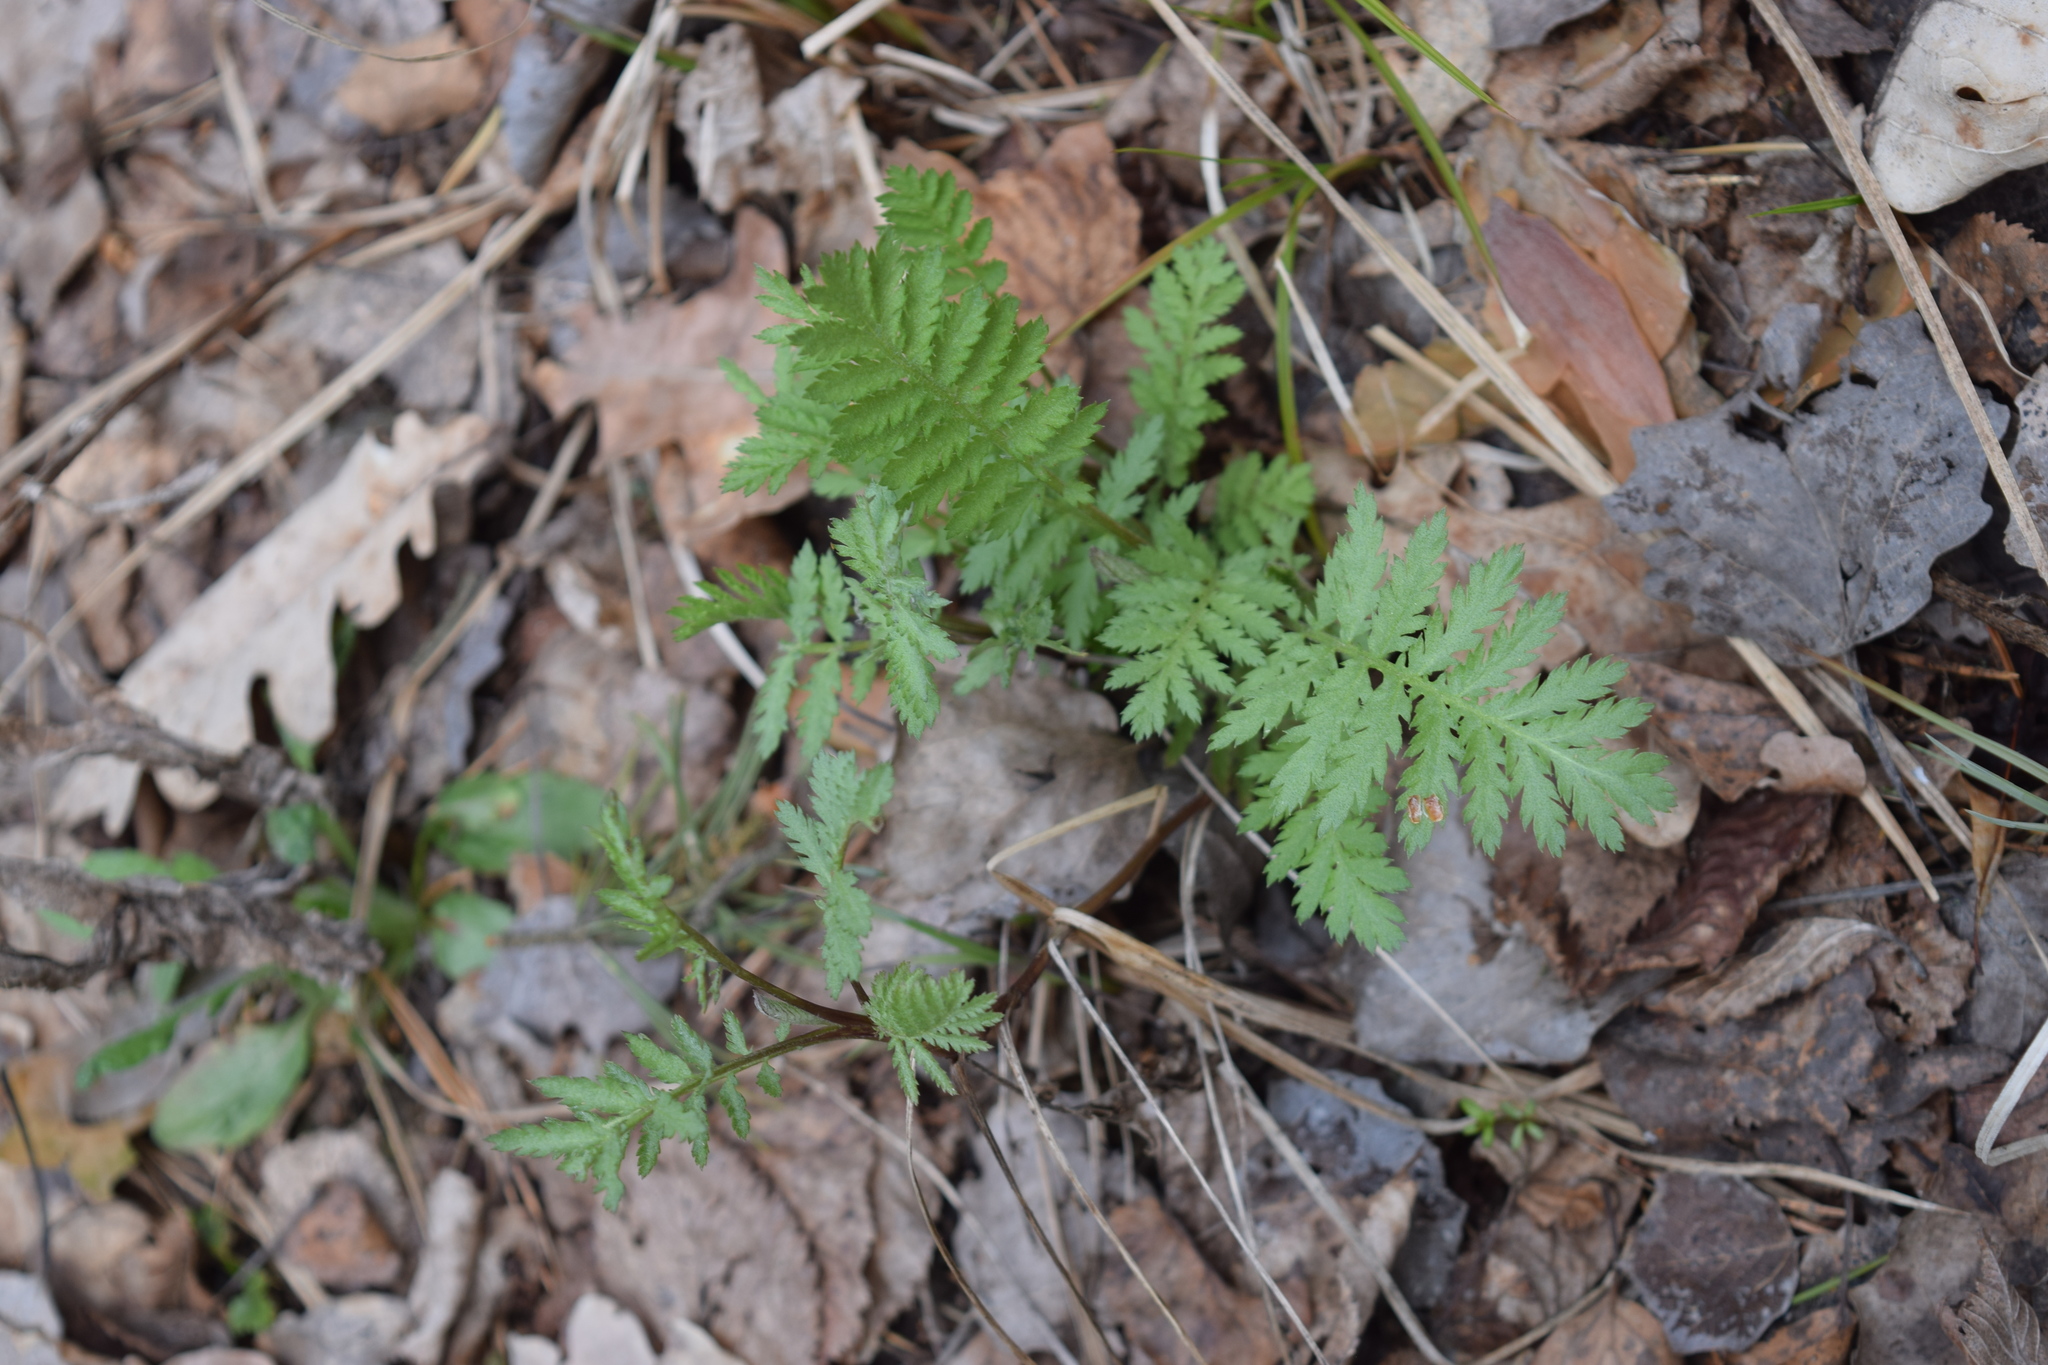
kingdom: Plantae
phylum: Tracheophyta
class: Magnoliopsida
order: Asterales
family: Asteraceae
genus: Tanacetum
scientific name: Tanacetum vulgare
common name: Common tansy
